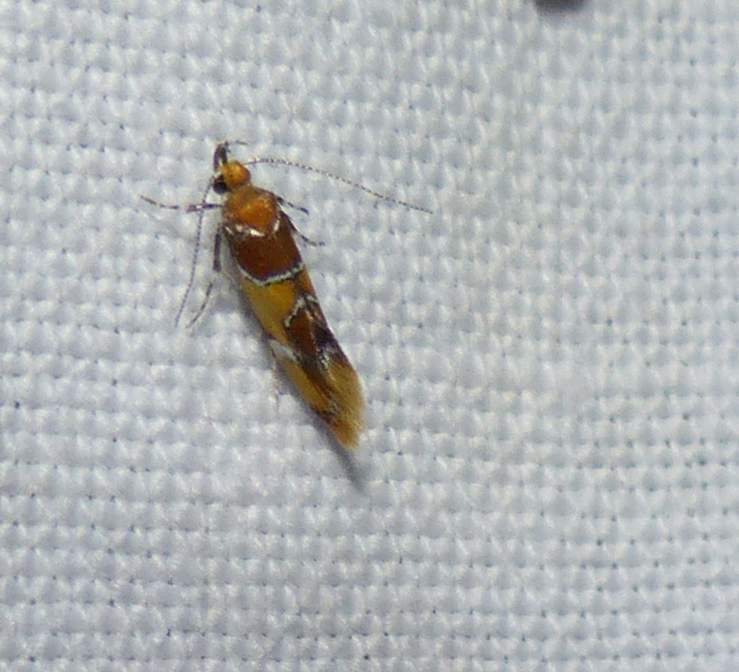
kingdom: Animalia
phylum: Arthropoda
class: Insecta
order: Lepidoptera
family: Oecophoridae
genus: Callima
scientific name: Callima argenticinctella
